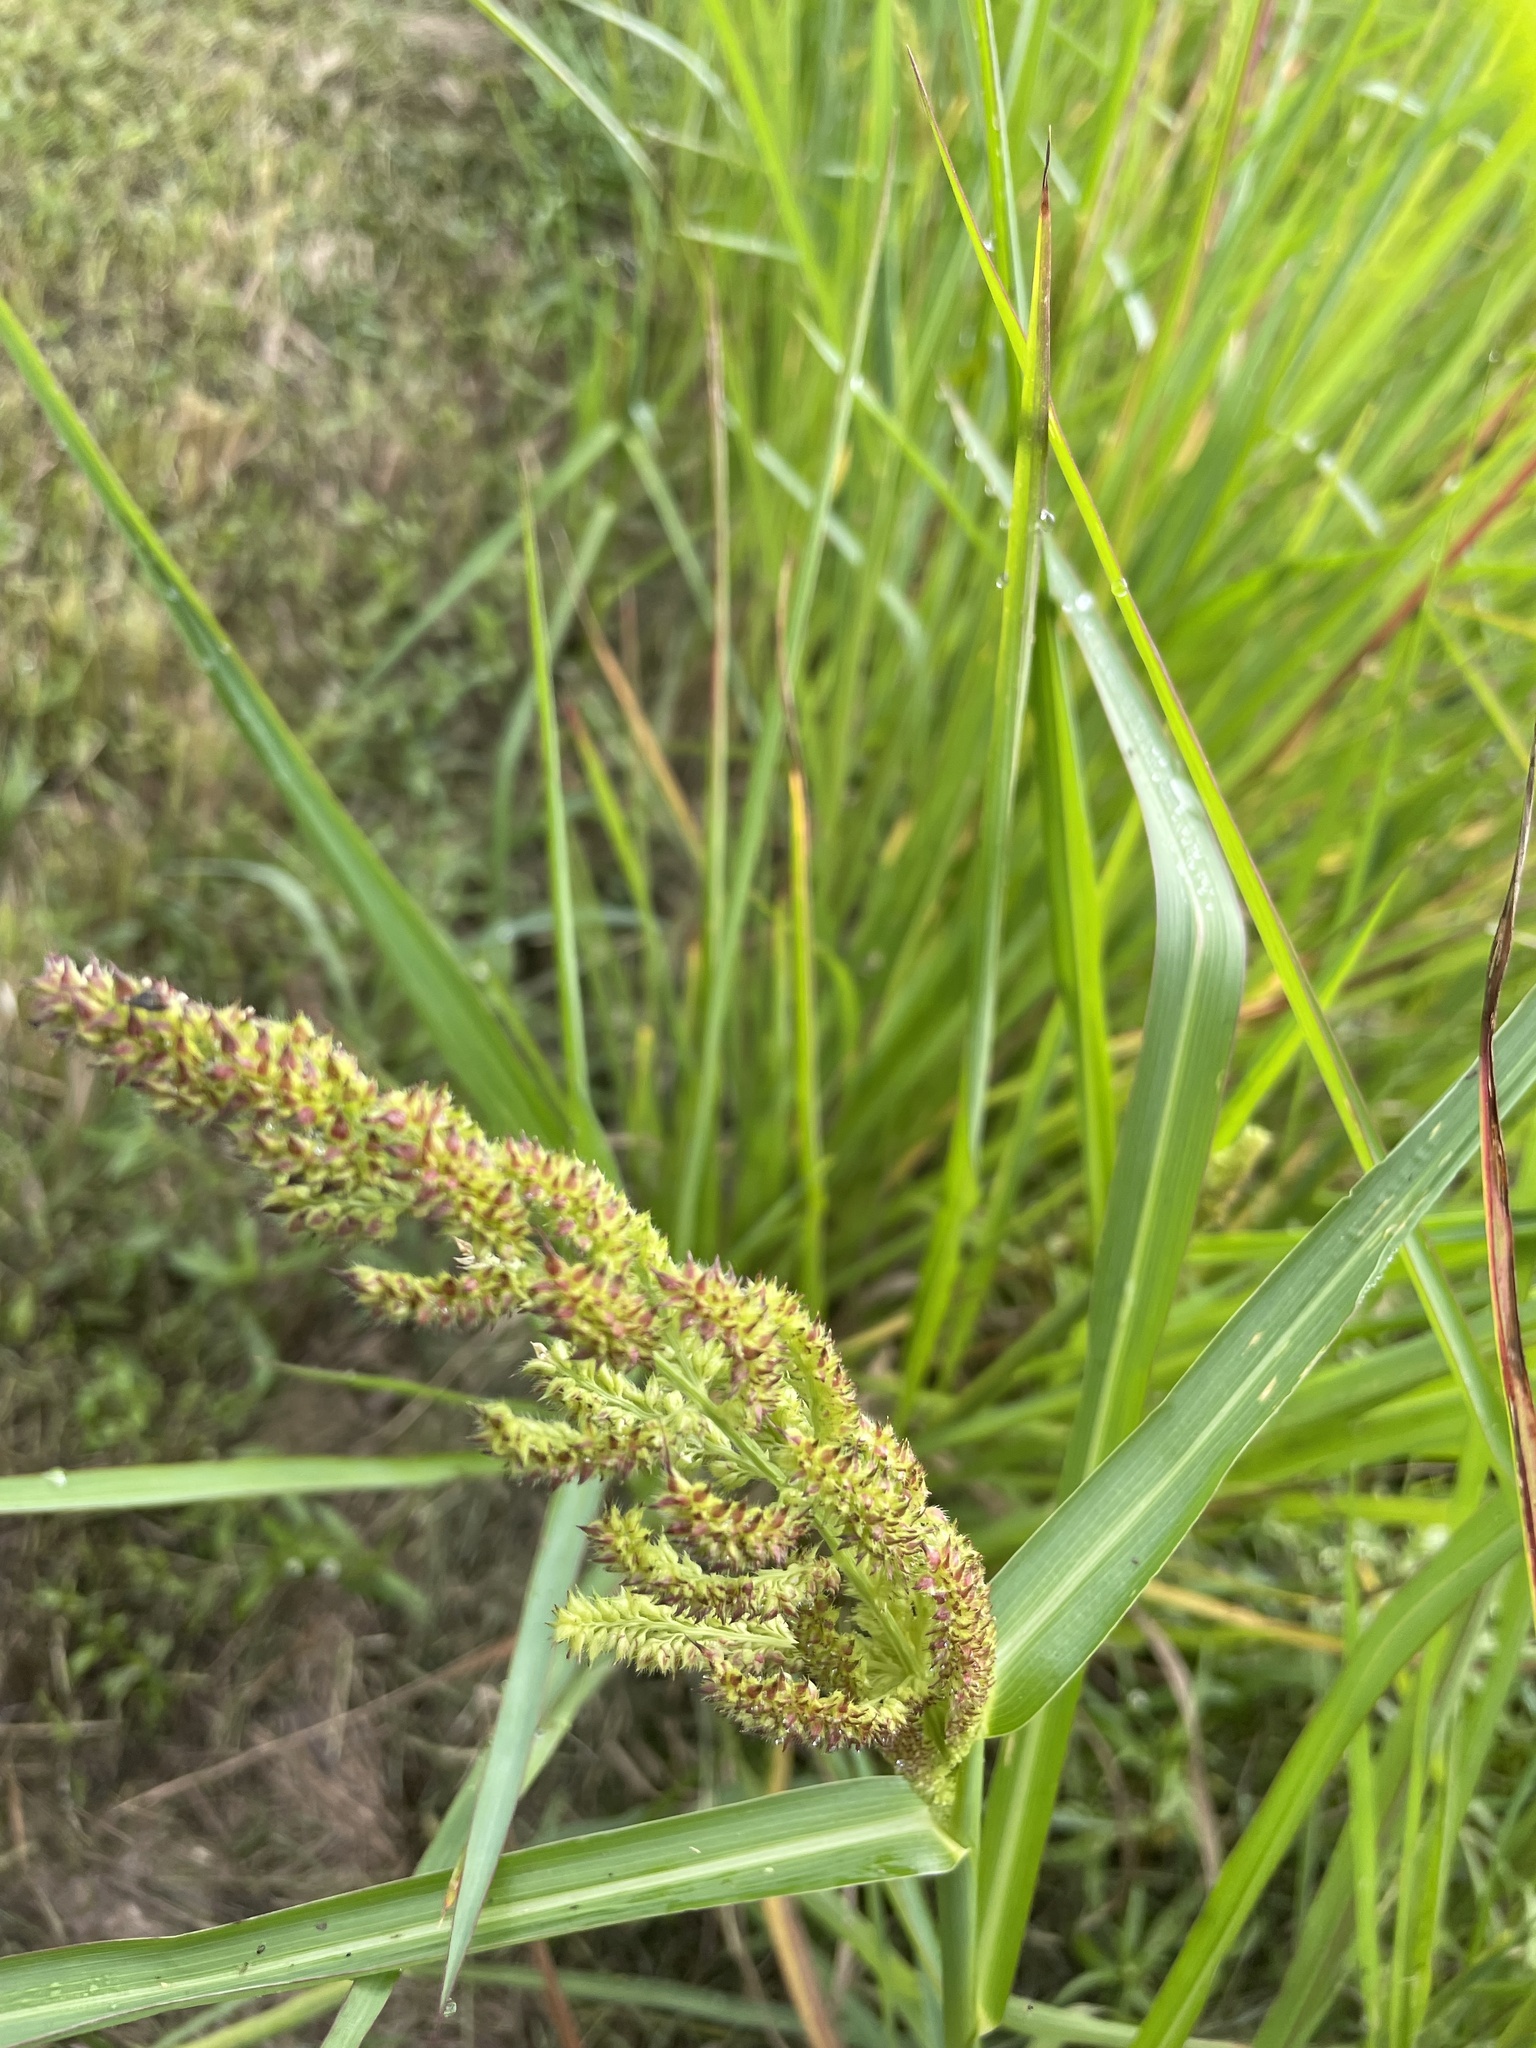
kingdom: Plantae
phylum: Tracheophyta
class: Liliopsida
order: Poales
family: Poaceae
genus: Echinochloa
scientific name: Echinochloa muricata
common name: American barnyard grass
